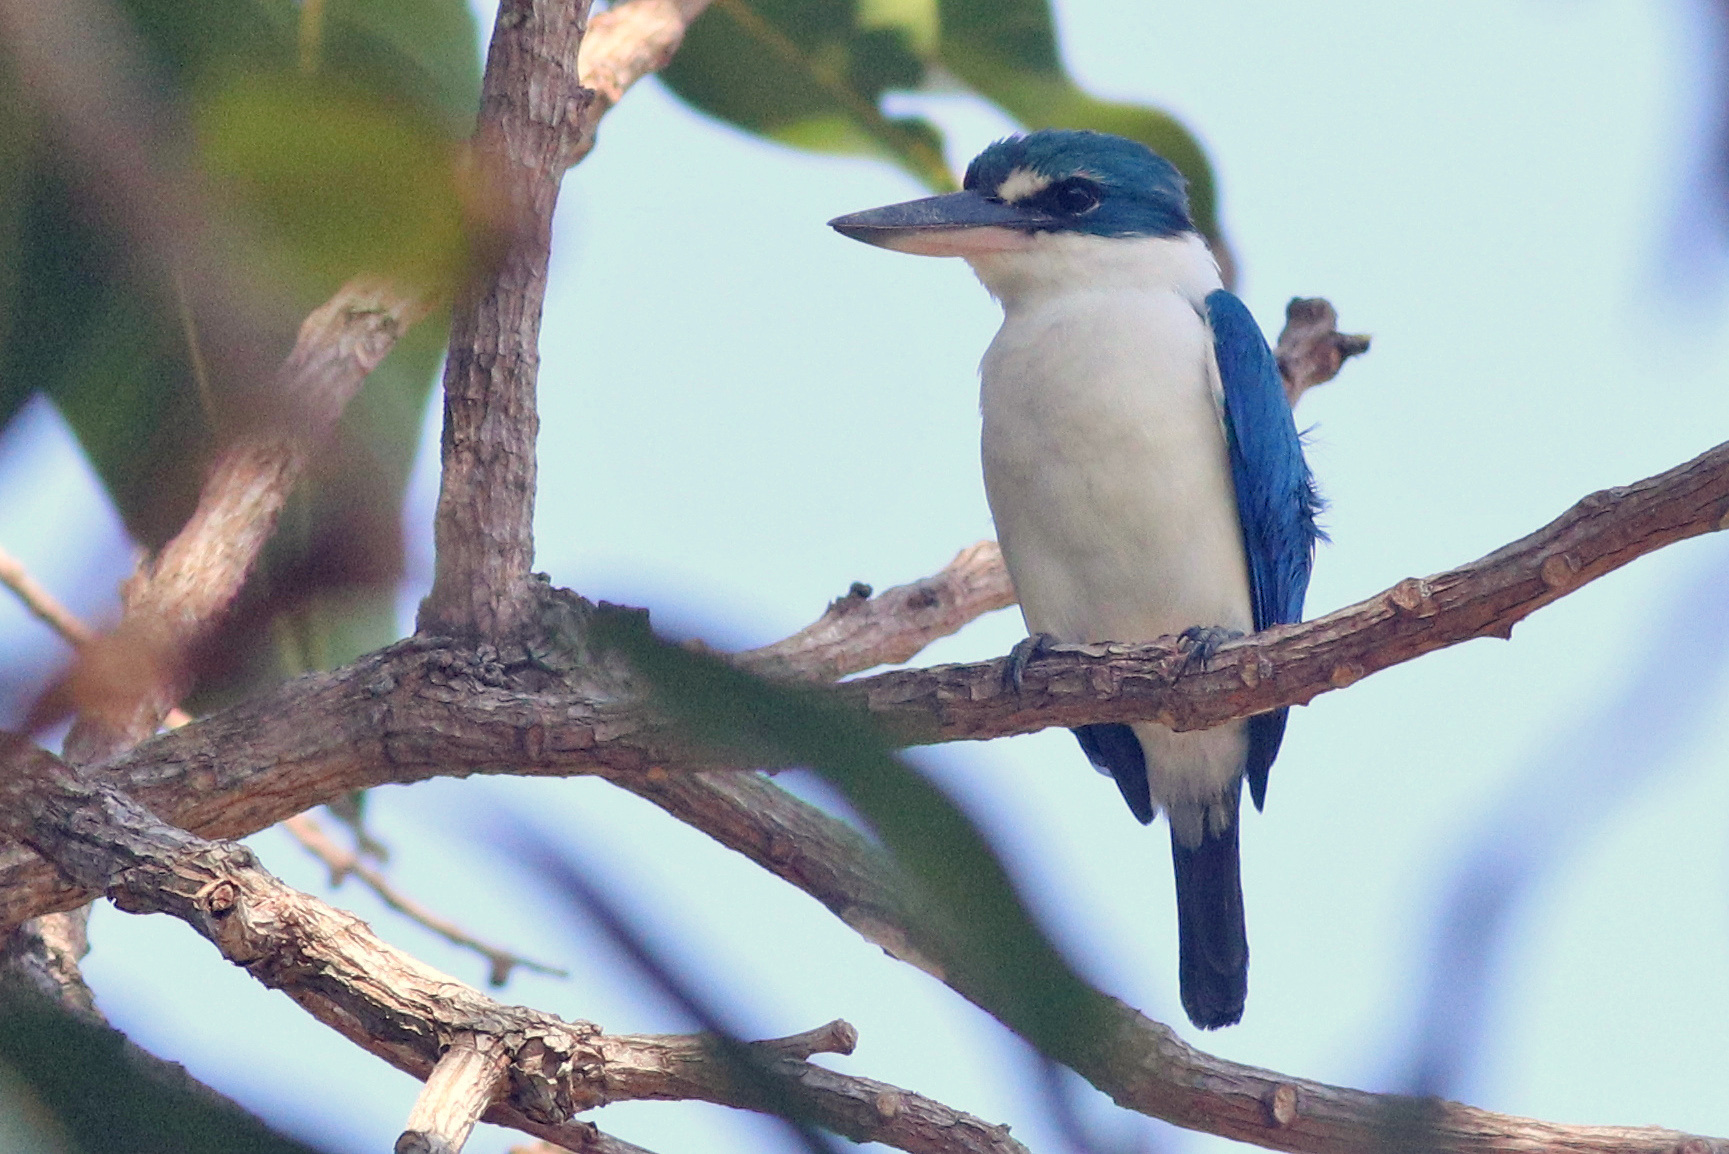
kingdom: Animalia
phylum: Chordata
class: Aves
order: Coraciiformes
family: Alcedinidae
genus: Todiramphus
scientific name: Todiramphus chloris
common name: Collared kingfisher
